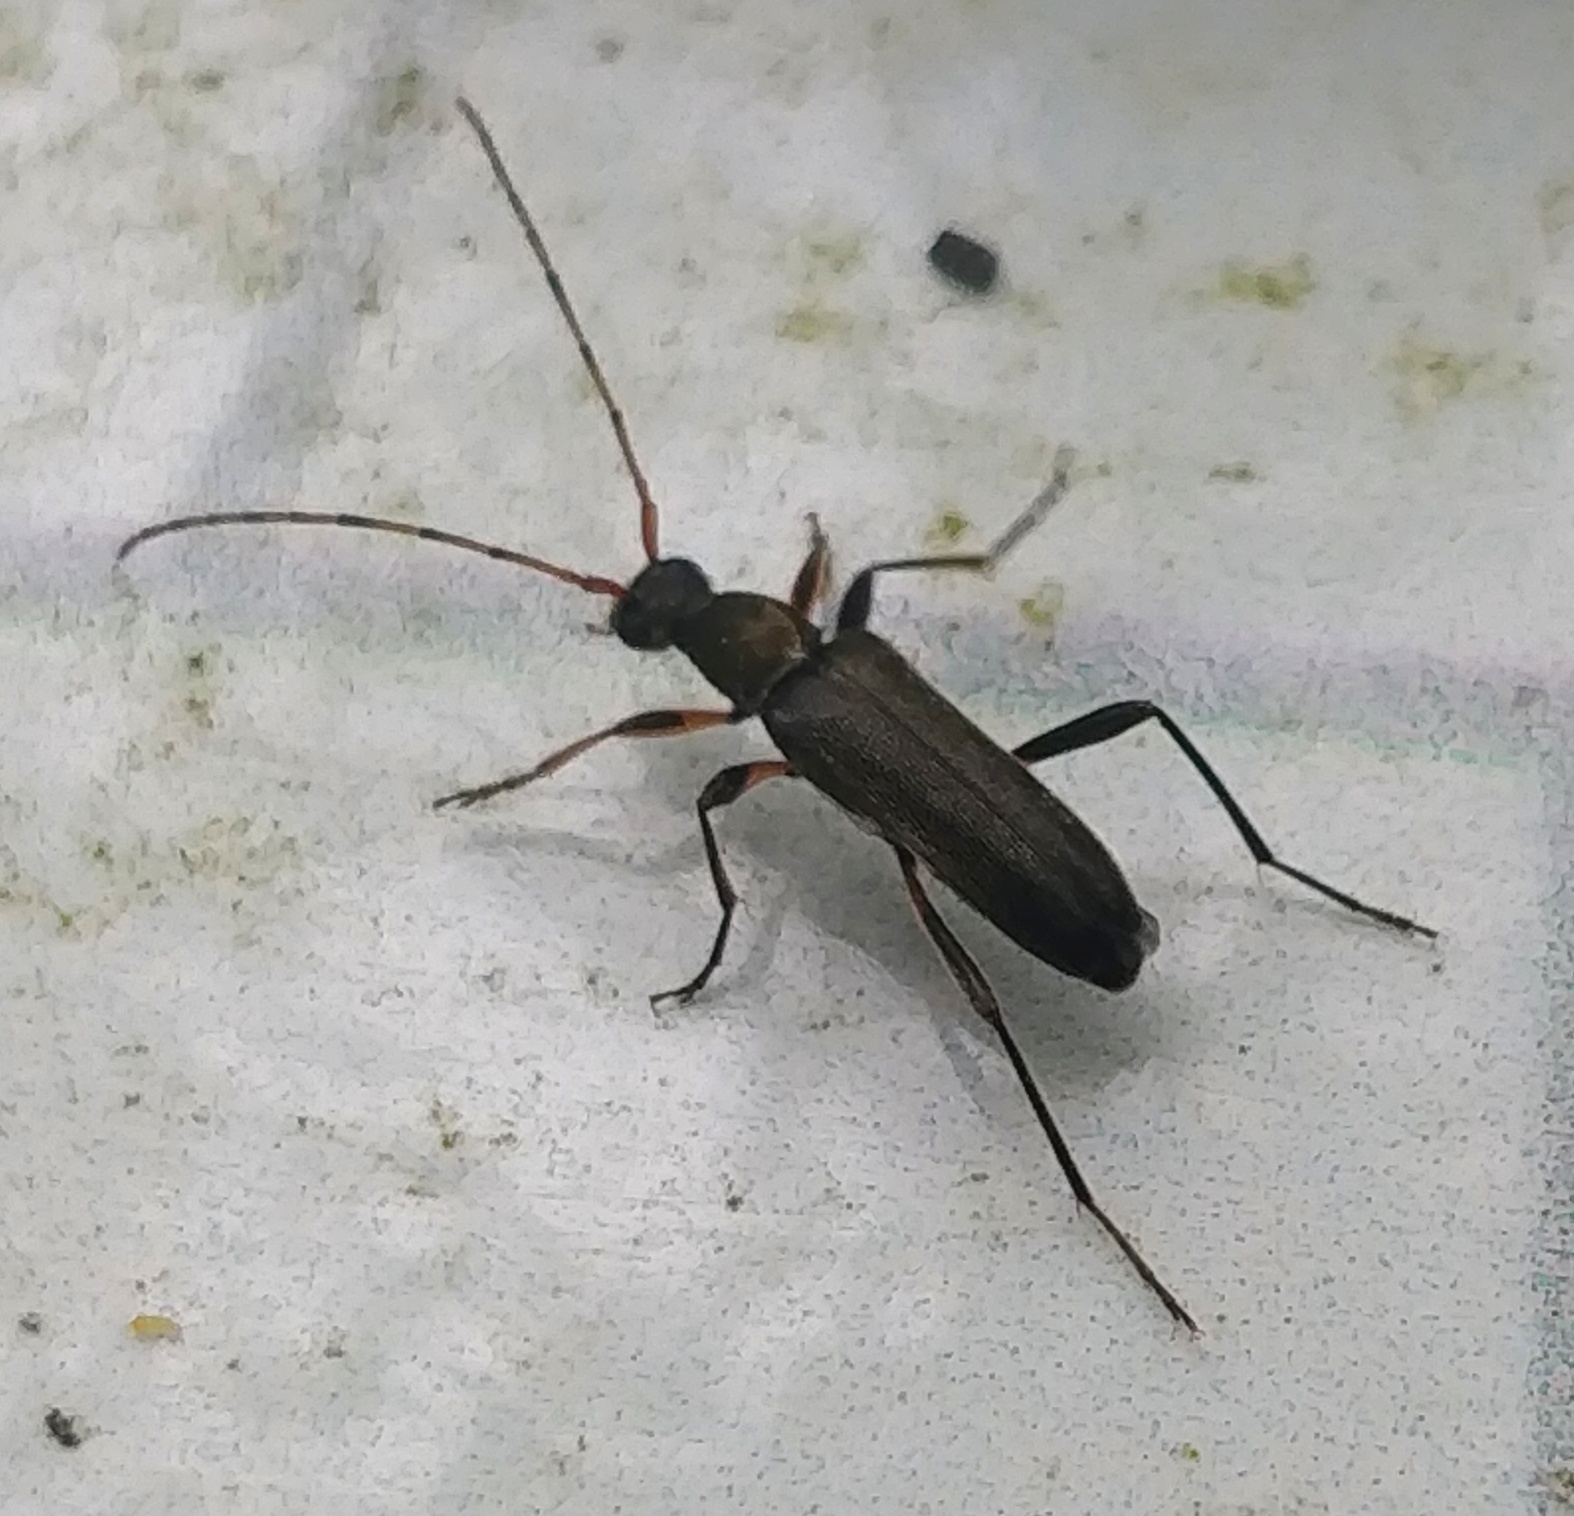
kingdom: Animalia
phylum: Arthropoda
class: Insecta
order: Coleoptera
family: Cerambycidae
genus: Grammoptera
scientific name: Grammoptera ruficornis
